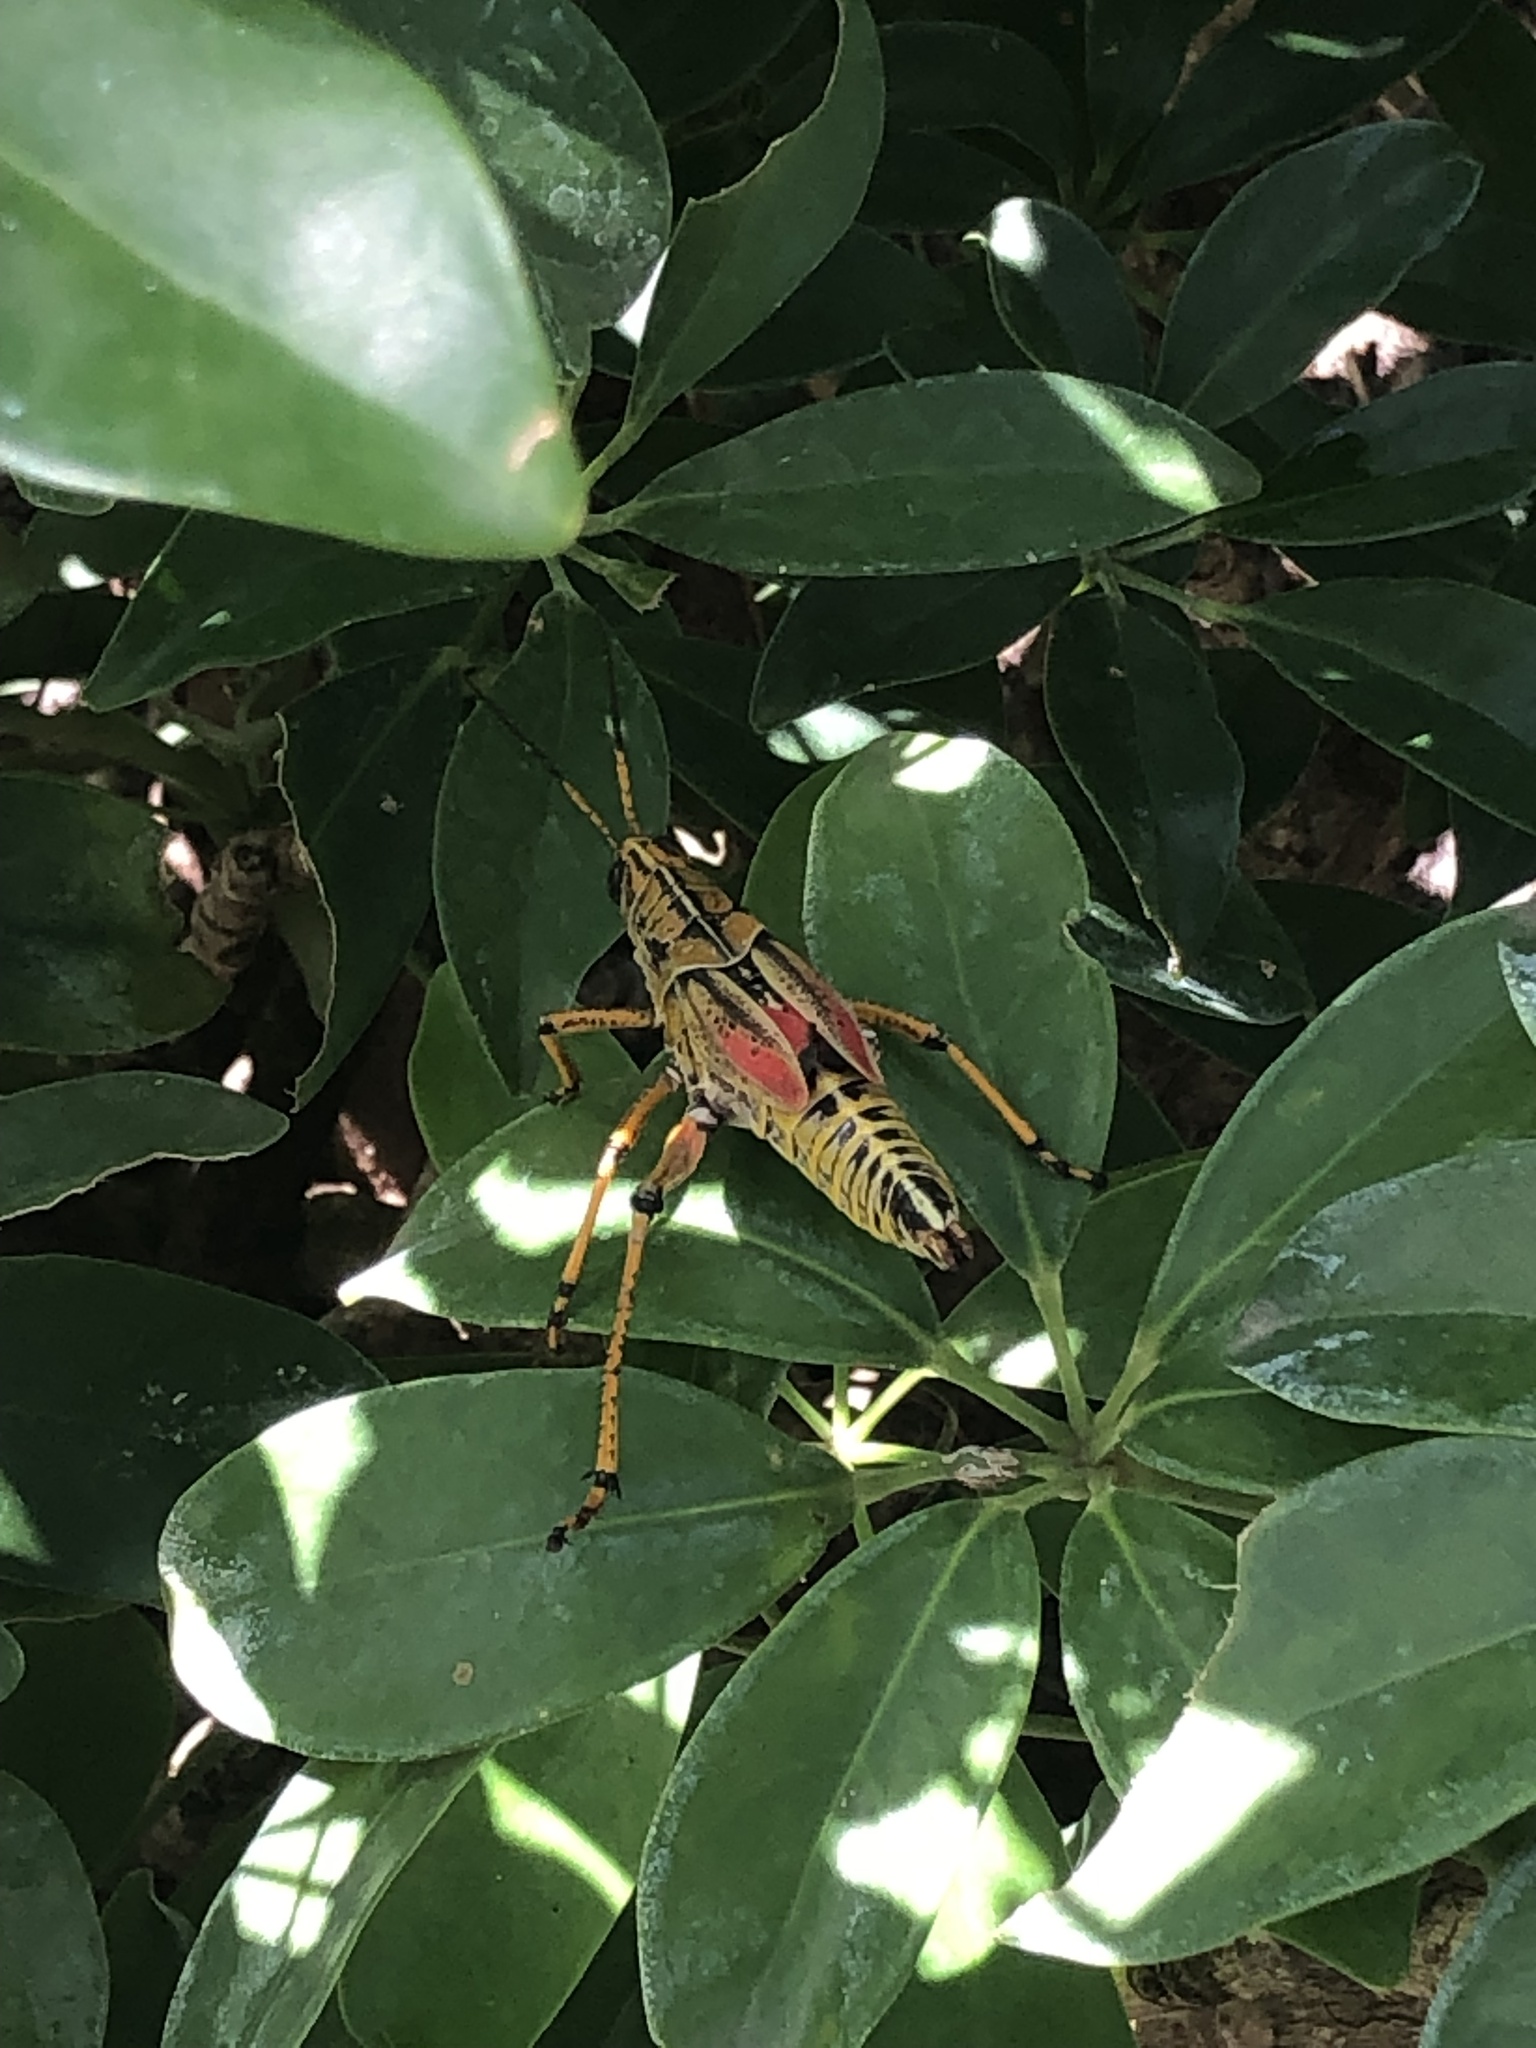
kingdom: Animalia
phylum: Arthropoda
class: Insecta
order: Orthoptera
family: Romaleidae
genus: Romalea
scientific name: Romalea microptera
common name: Eastern lubber grasshopper
